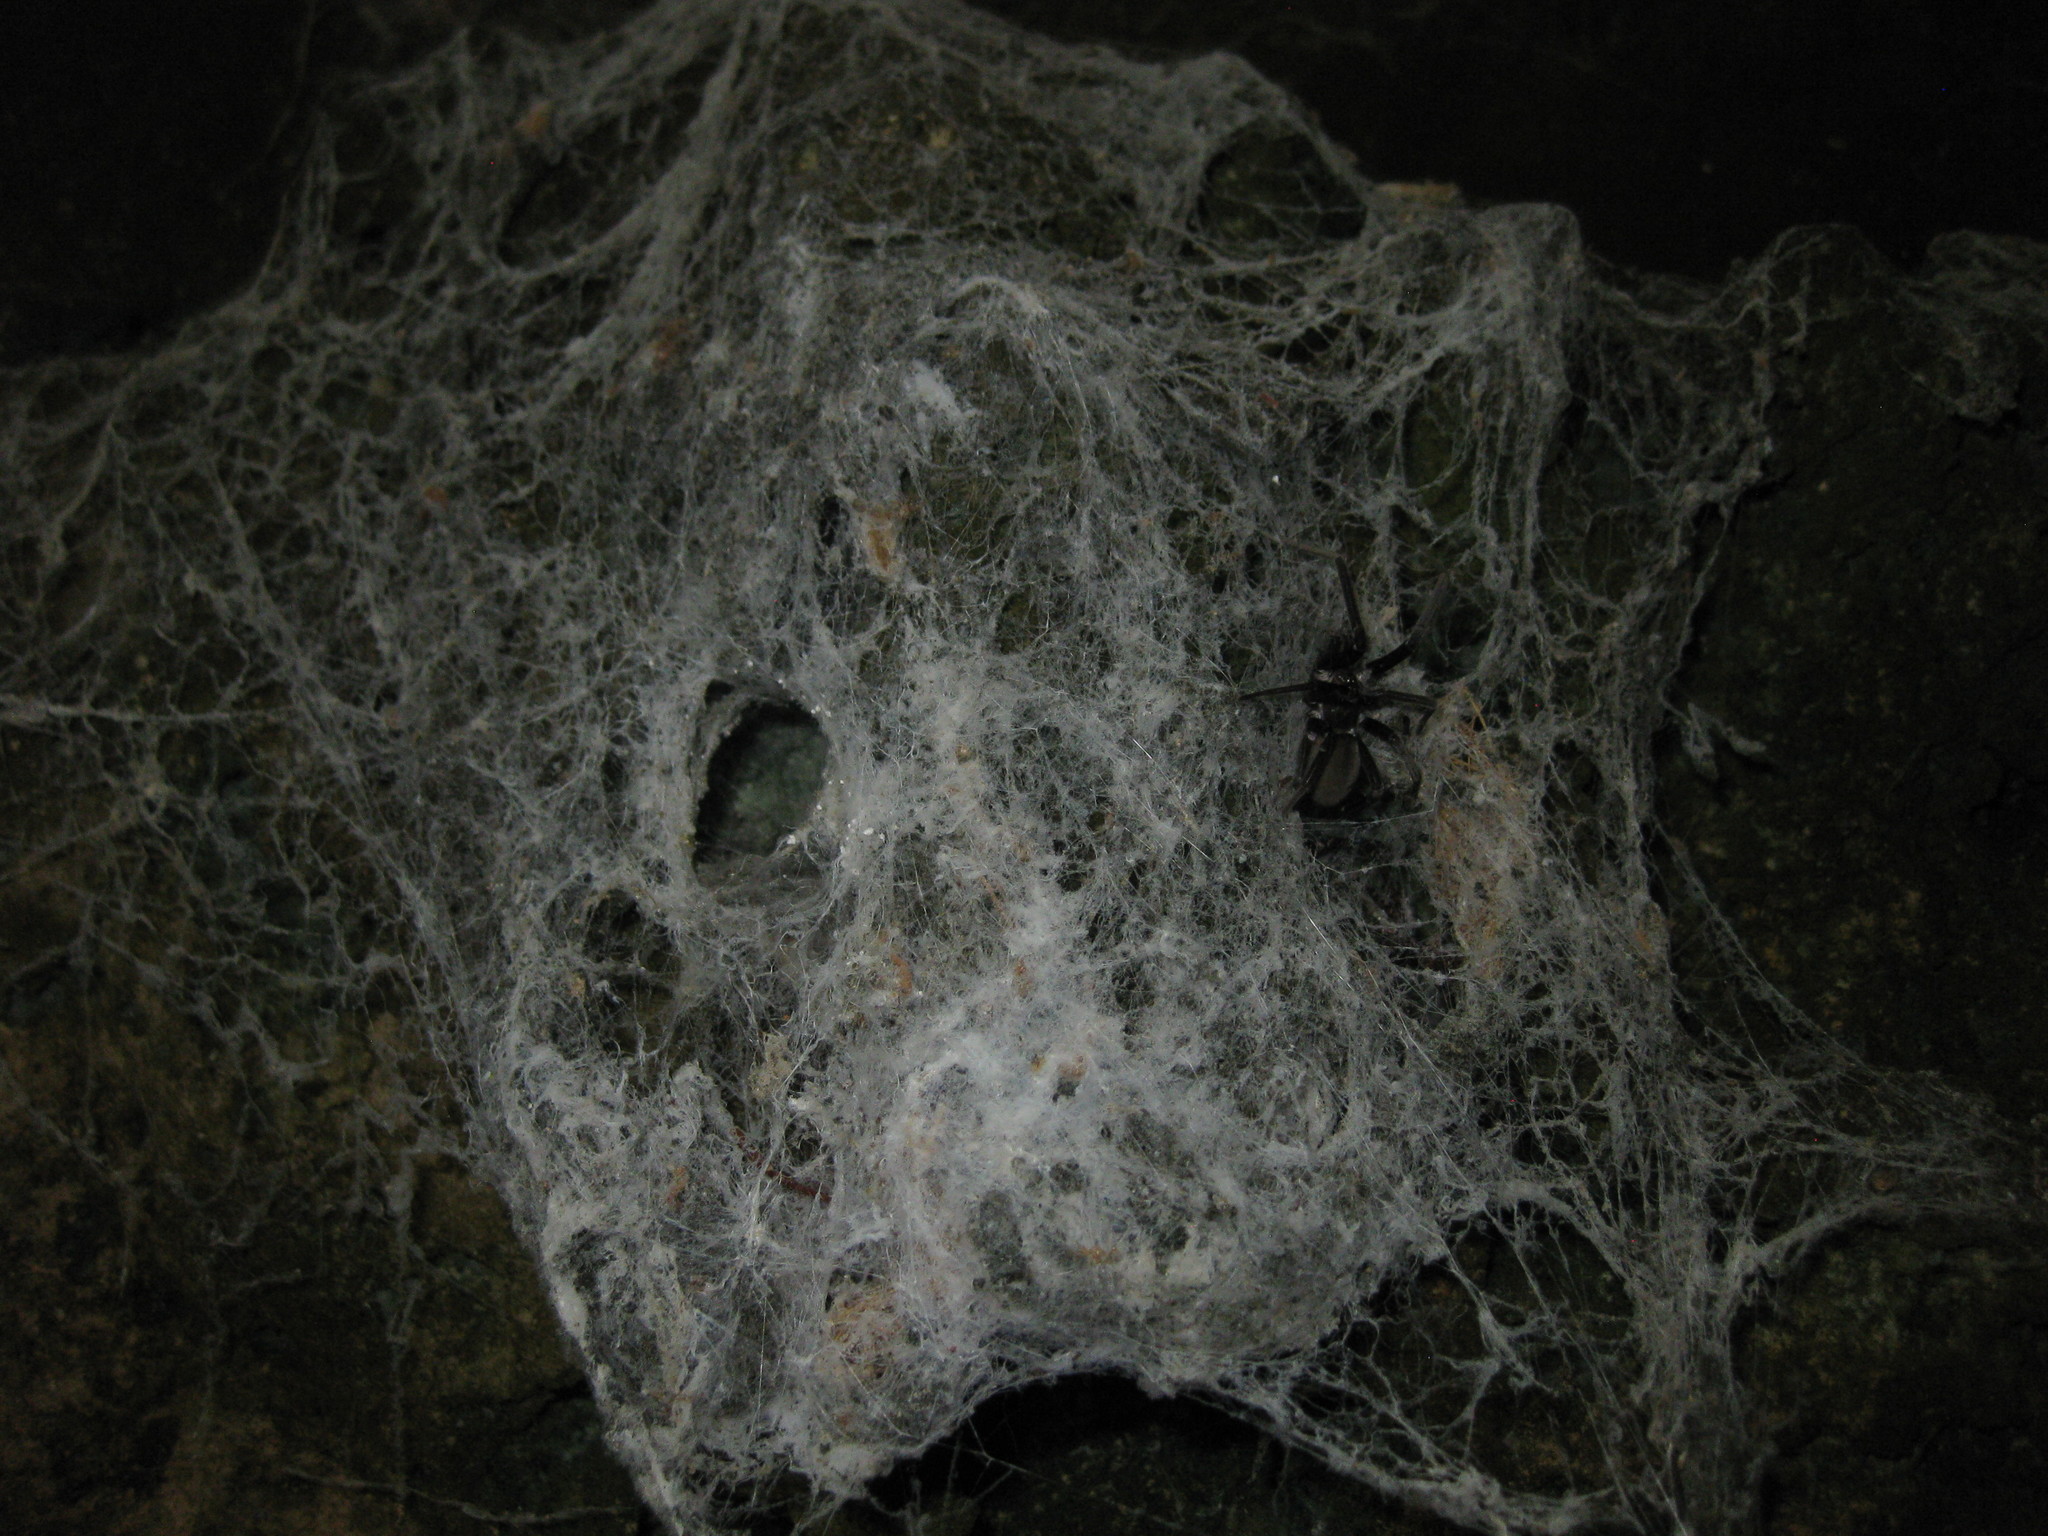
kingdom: Animalia
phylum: Arthropoda
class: Arachnida
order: Araneae
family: Filistatidae
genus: Kukulcania
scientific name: Kukulcania hibernalis
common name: Crevice weaver
